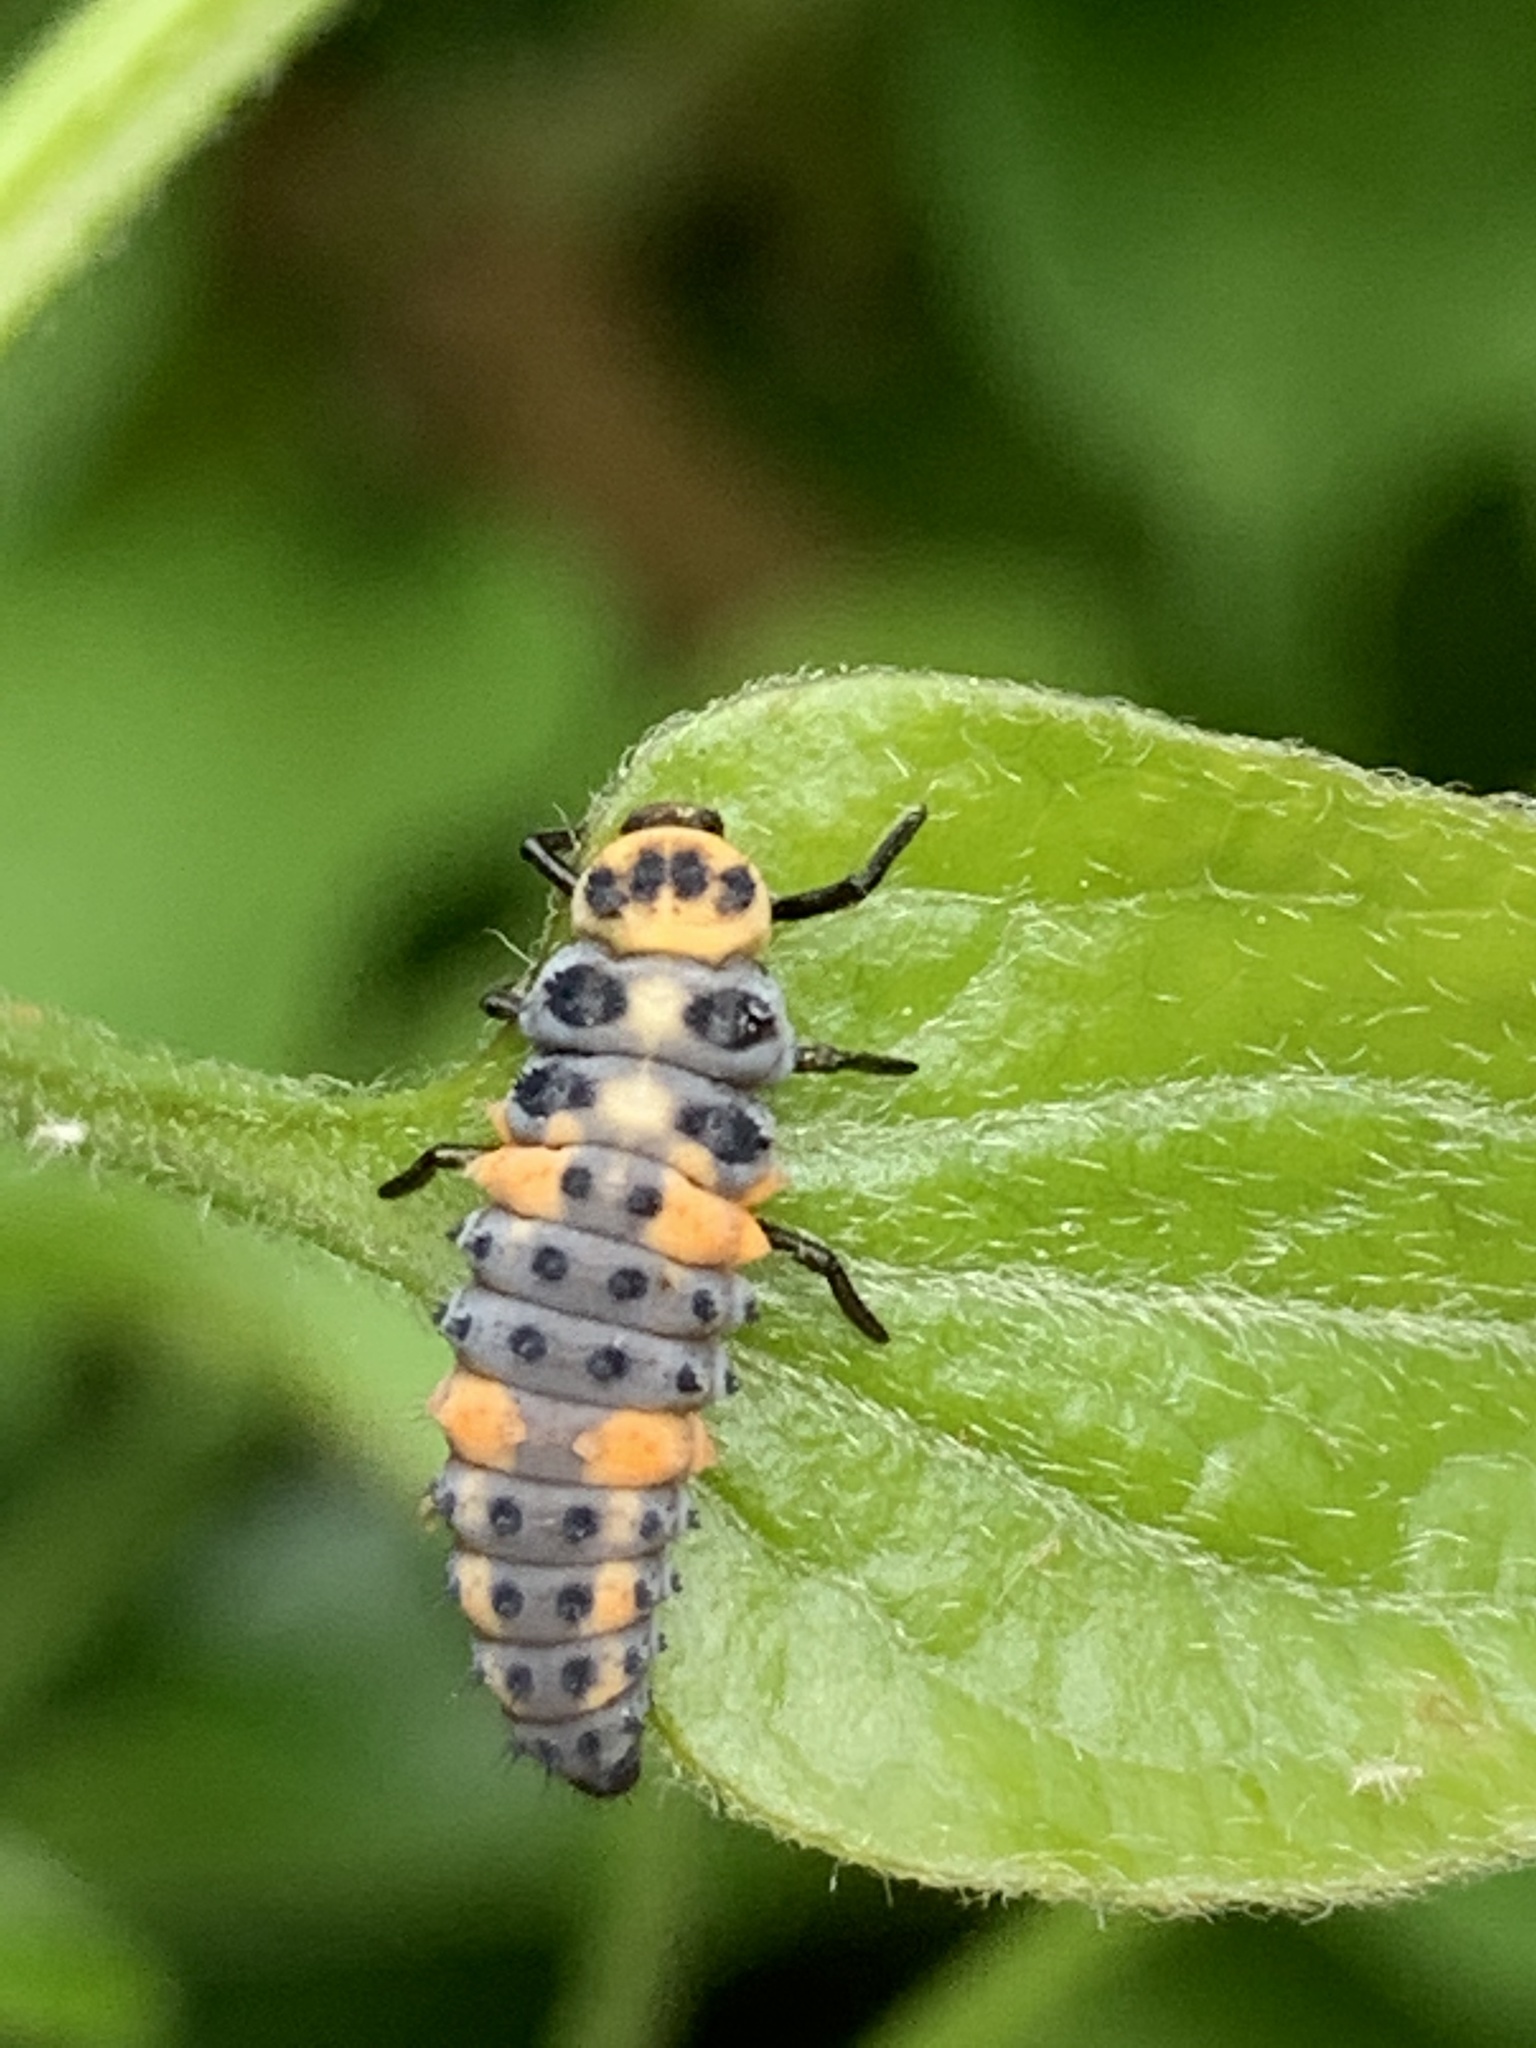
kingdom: Animalia
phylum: Arthropoda
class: Insecta
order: Coleoptera
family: Coccinellidae
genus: Hippodamia
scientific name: Hippodamia
